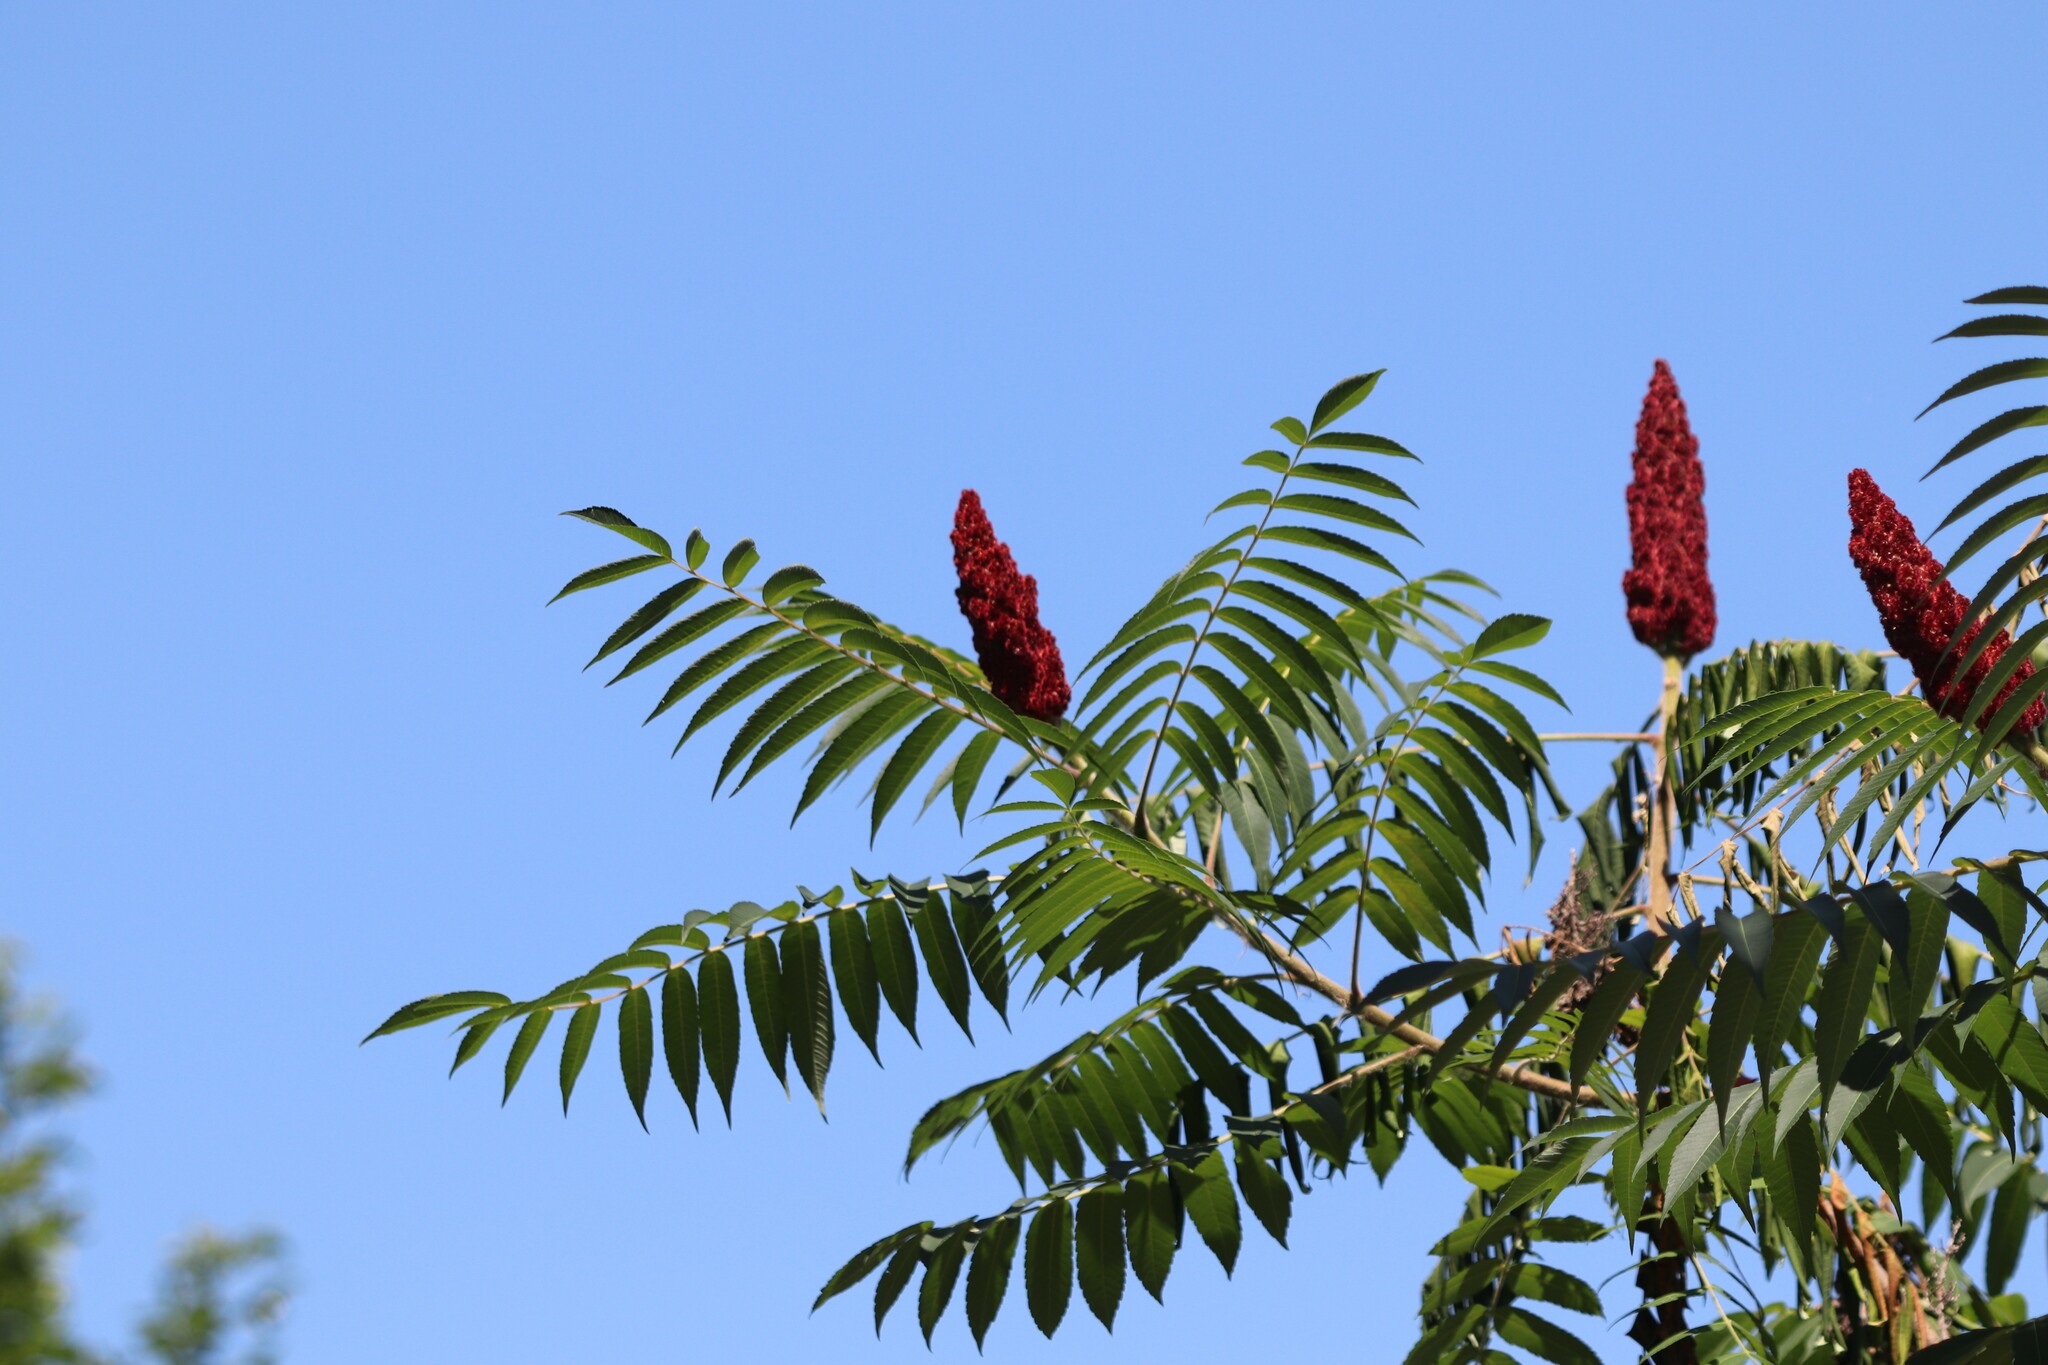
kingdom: Plantae
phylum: Tracheophyta
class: Magnoliopsida
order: Sapindales
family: Anacardiaceae
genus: Rhus
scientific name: Rhus typhina
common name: Staghorn sumac
